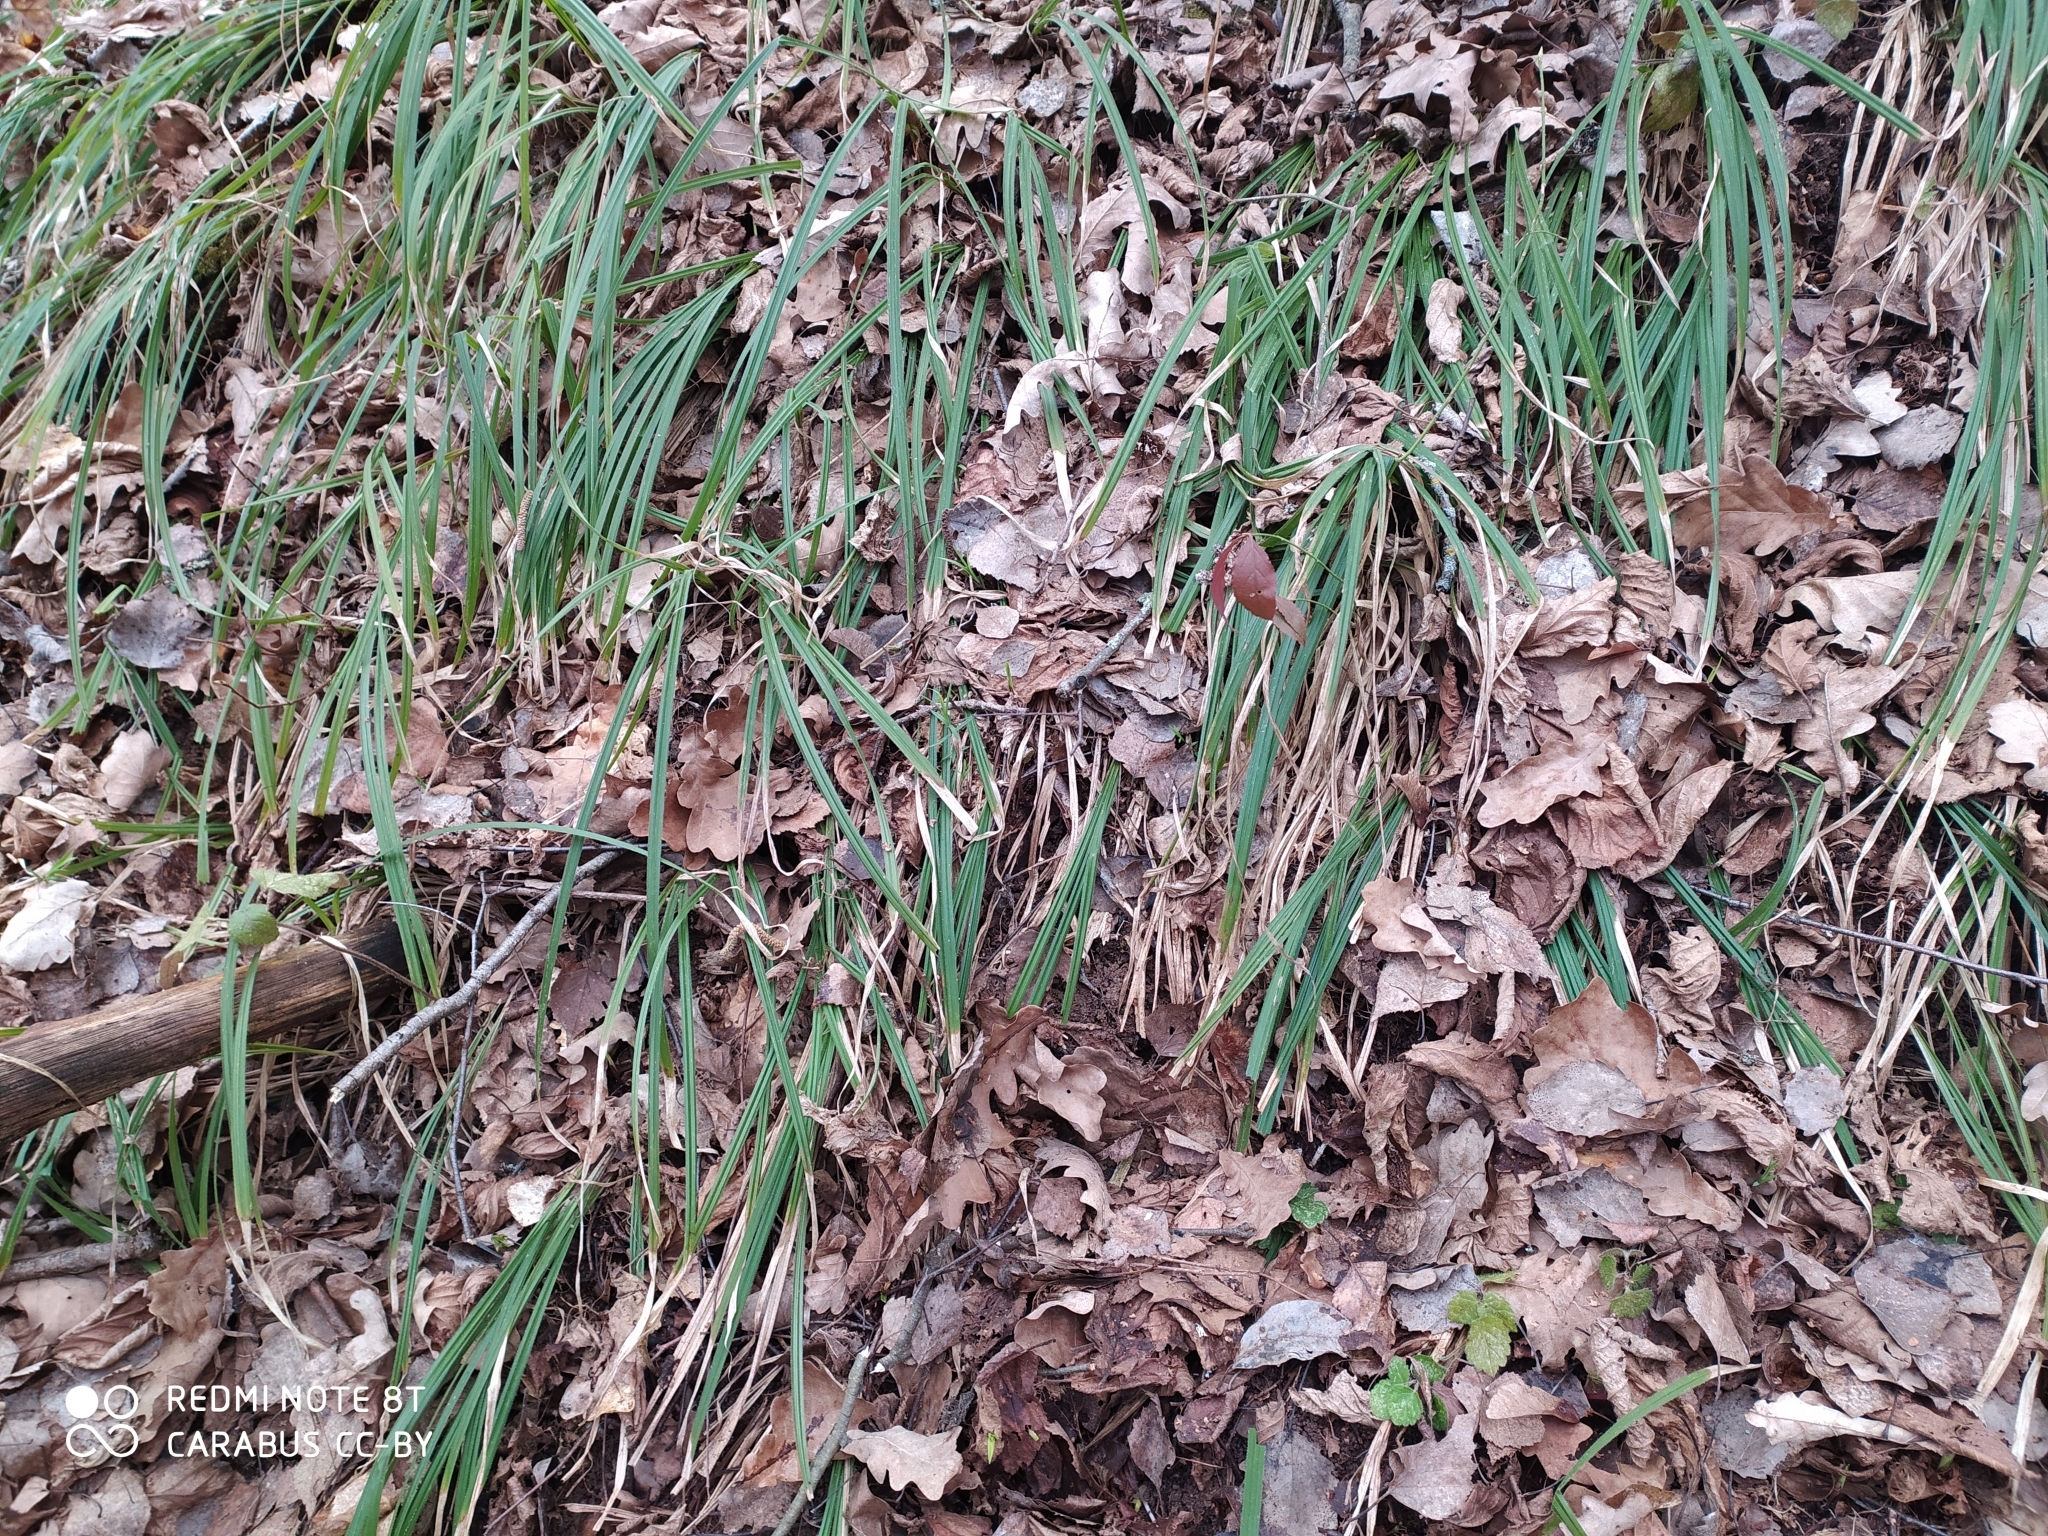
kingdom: Plantae
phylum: Tracheophyta
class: Liliopsida
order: Poales
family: Cyperaceae
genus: Carex
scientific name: Carex pilosa
